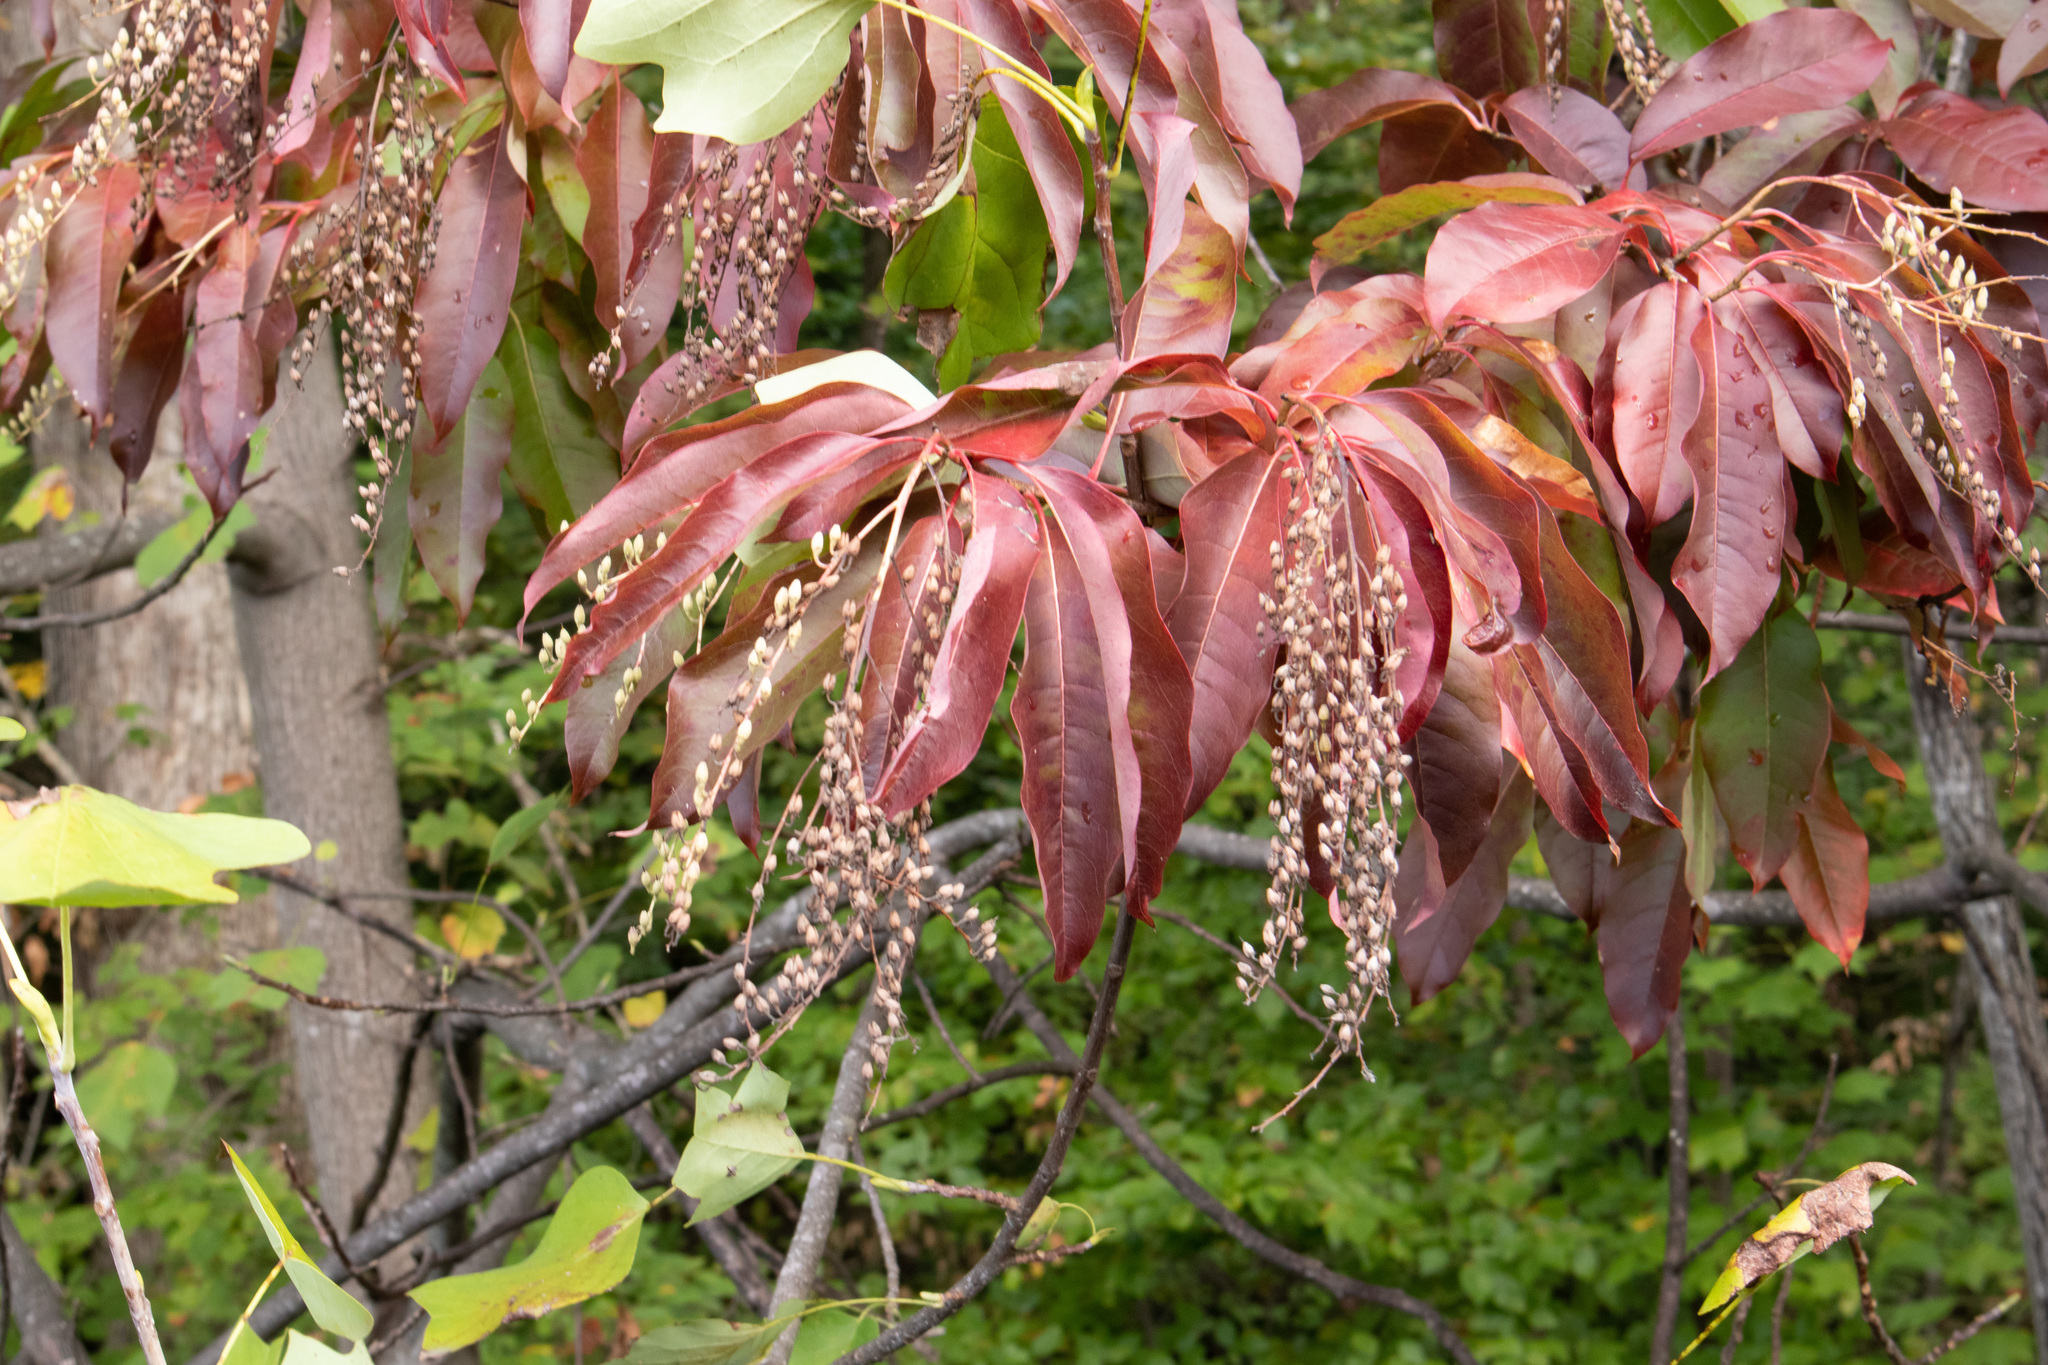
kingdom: Plantae
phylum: Tracheophyta
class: Magnoliopsida
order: Ericales
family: Ericaceae
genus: Oxydendrum
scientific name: Oxydendrum arboreum
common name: Sourwood
